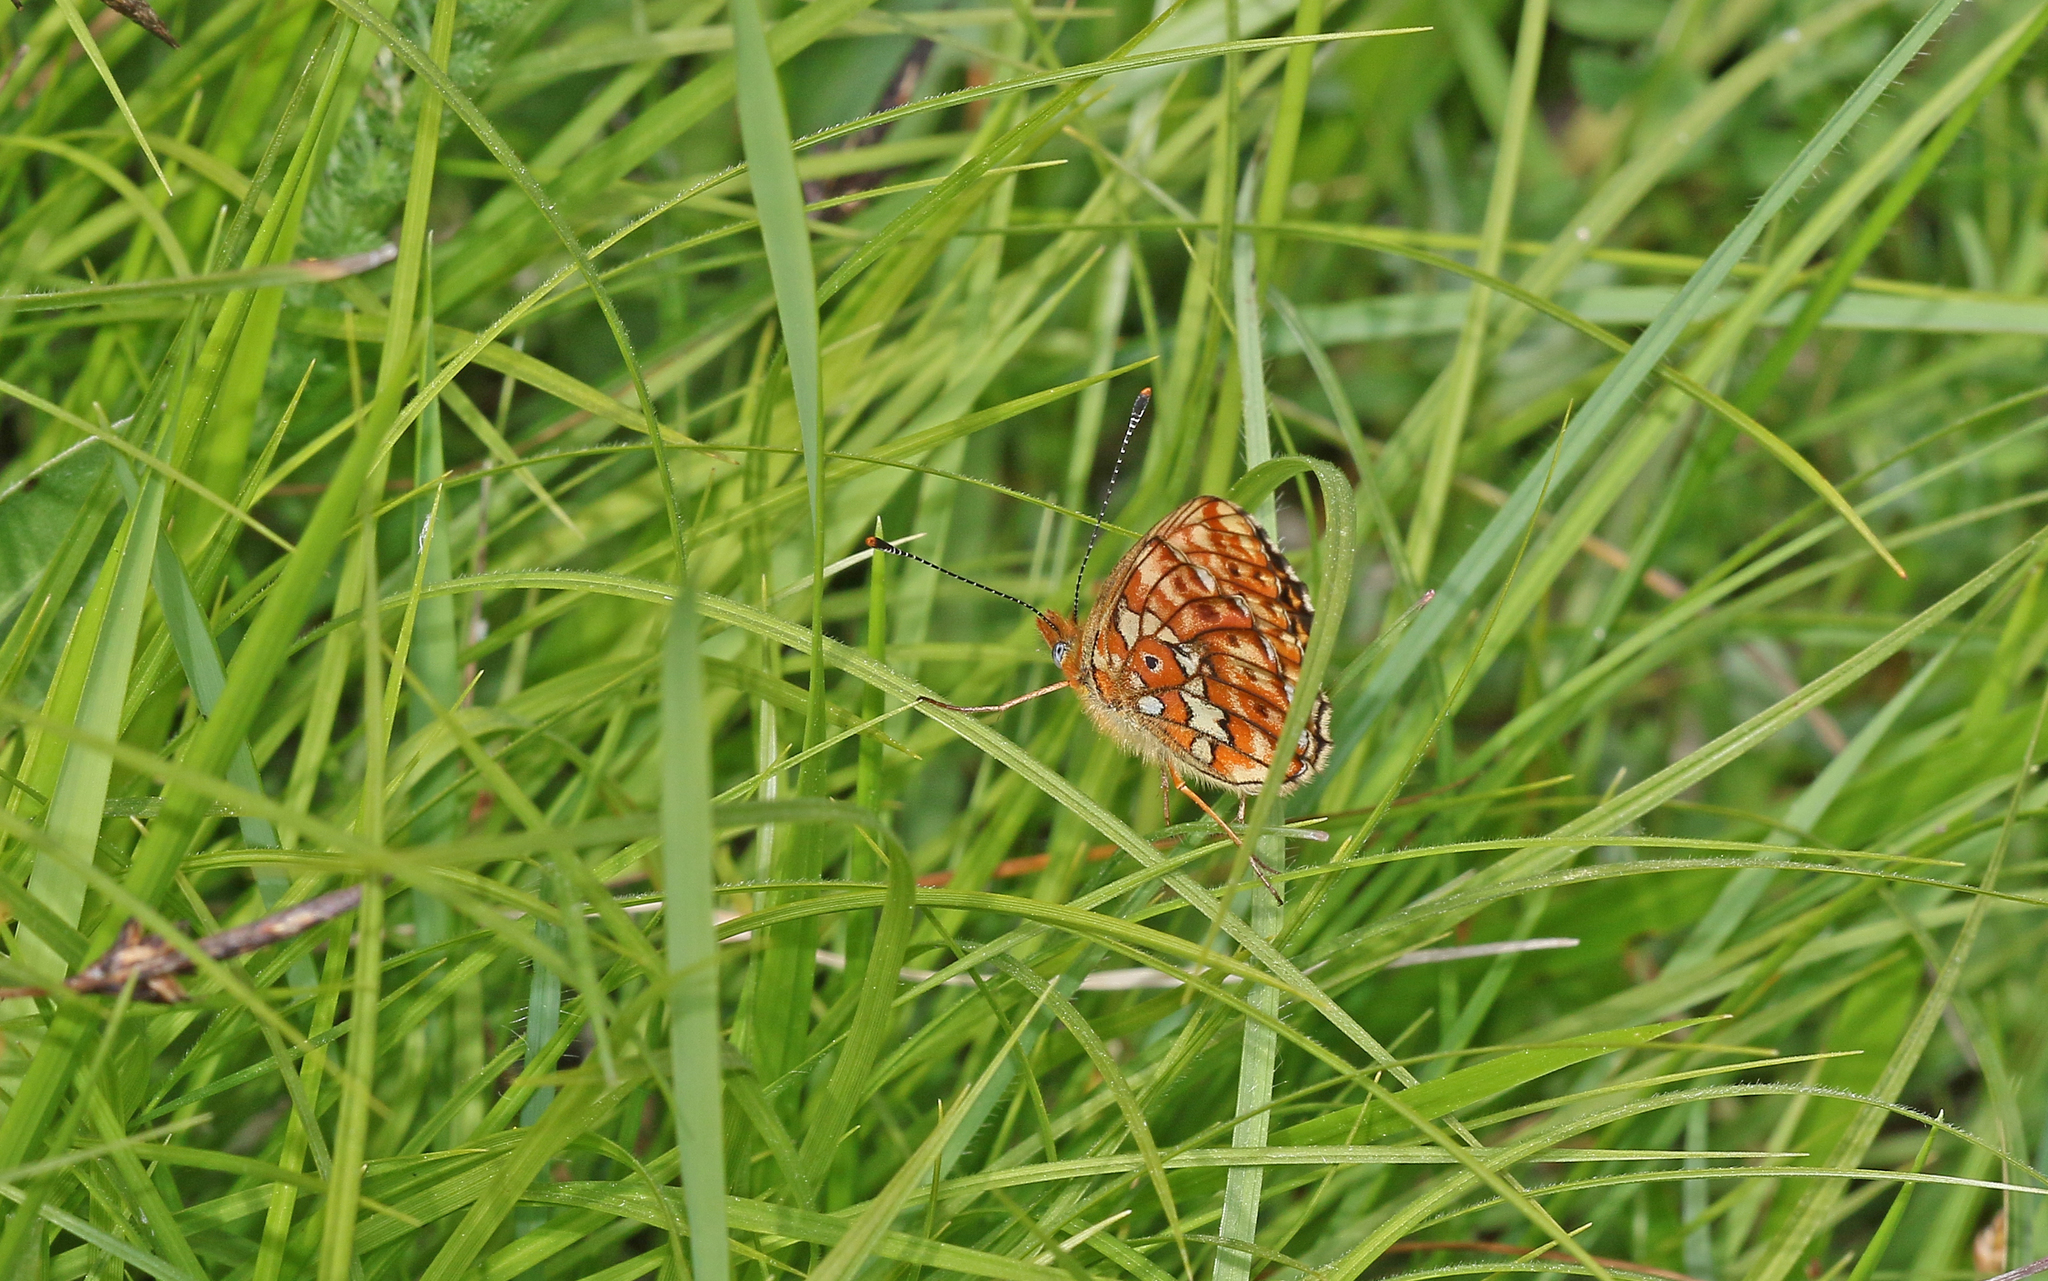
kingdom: Animalia
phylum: Arthropoda
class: Insecta
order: Lepidoptera
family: Nymphalidae
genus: Clossiana
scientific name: Clossiana euphrosyne
